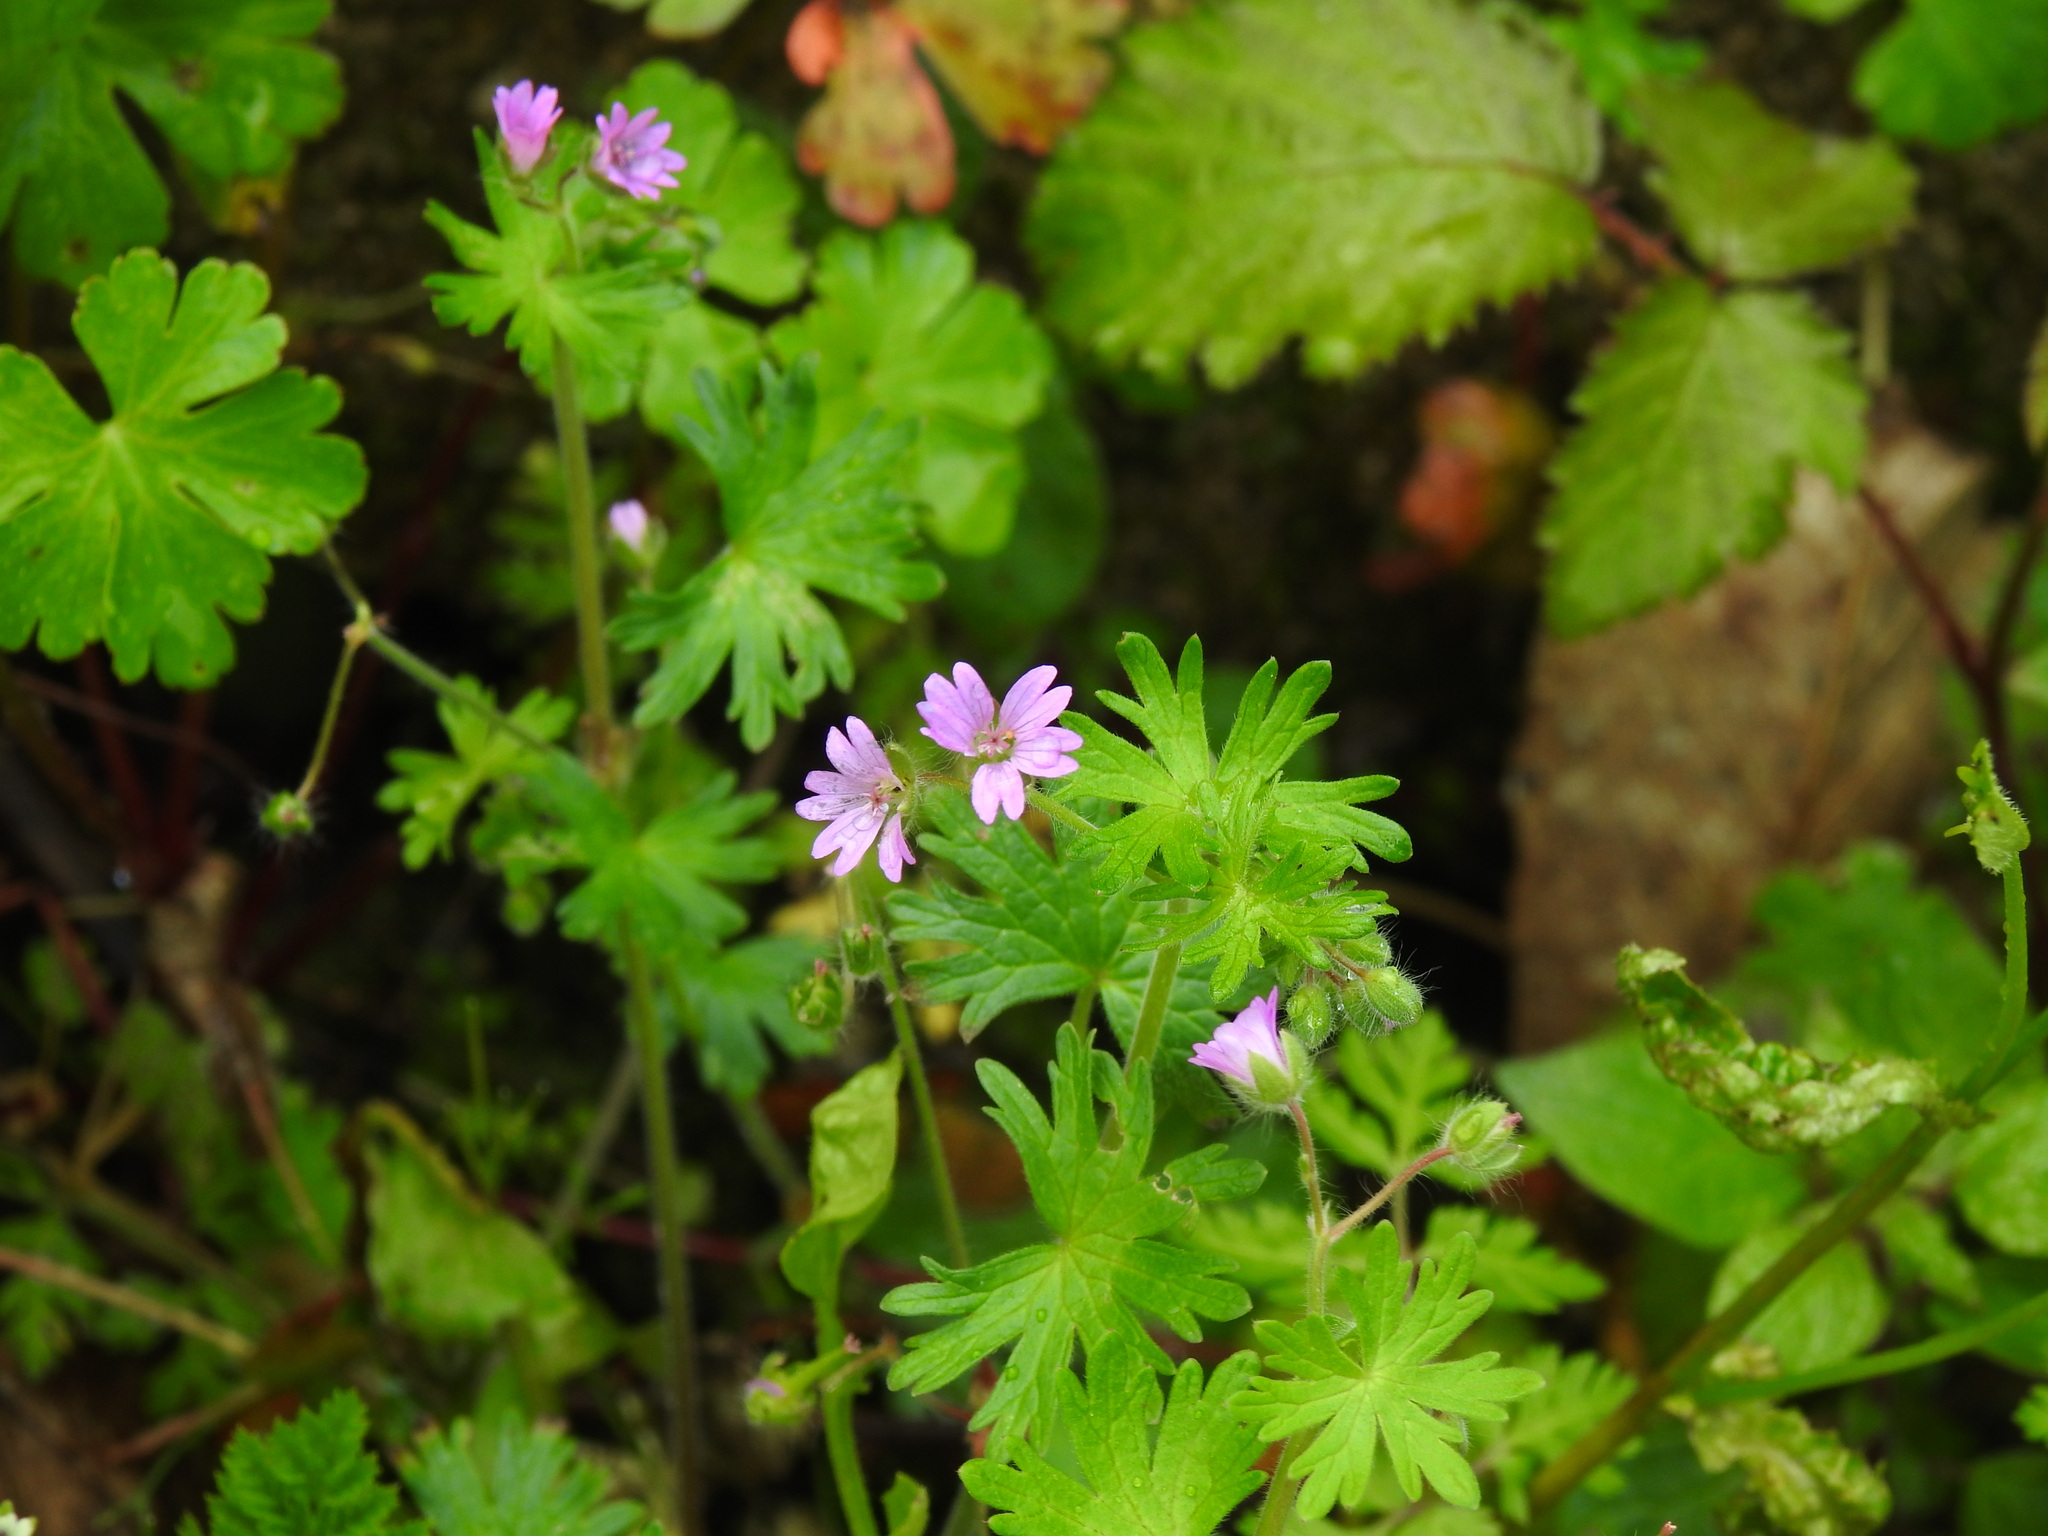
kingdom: Plantae
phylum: Tracheophyta
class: Magnoliopsida
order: Geraniales
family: Geraniaceae
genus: Geranium
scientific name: Geranium molle
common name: Dove's-foot crane's-bill
